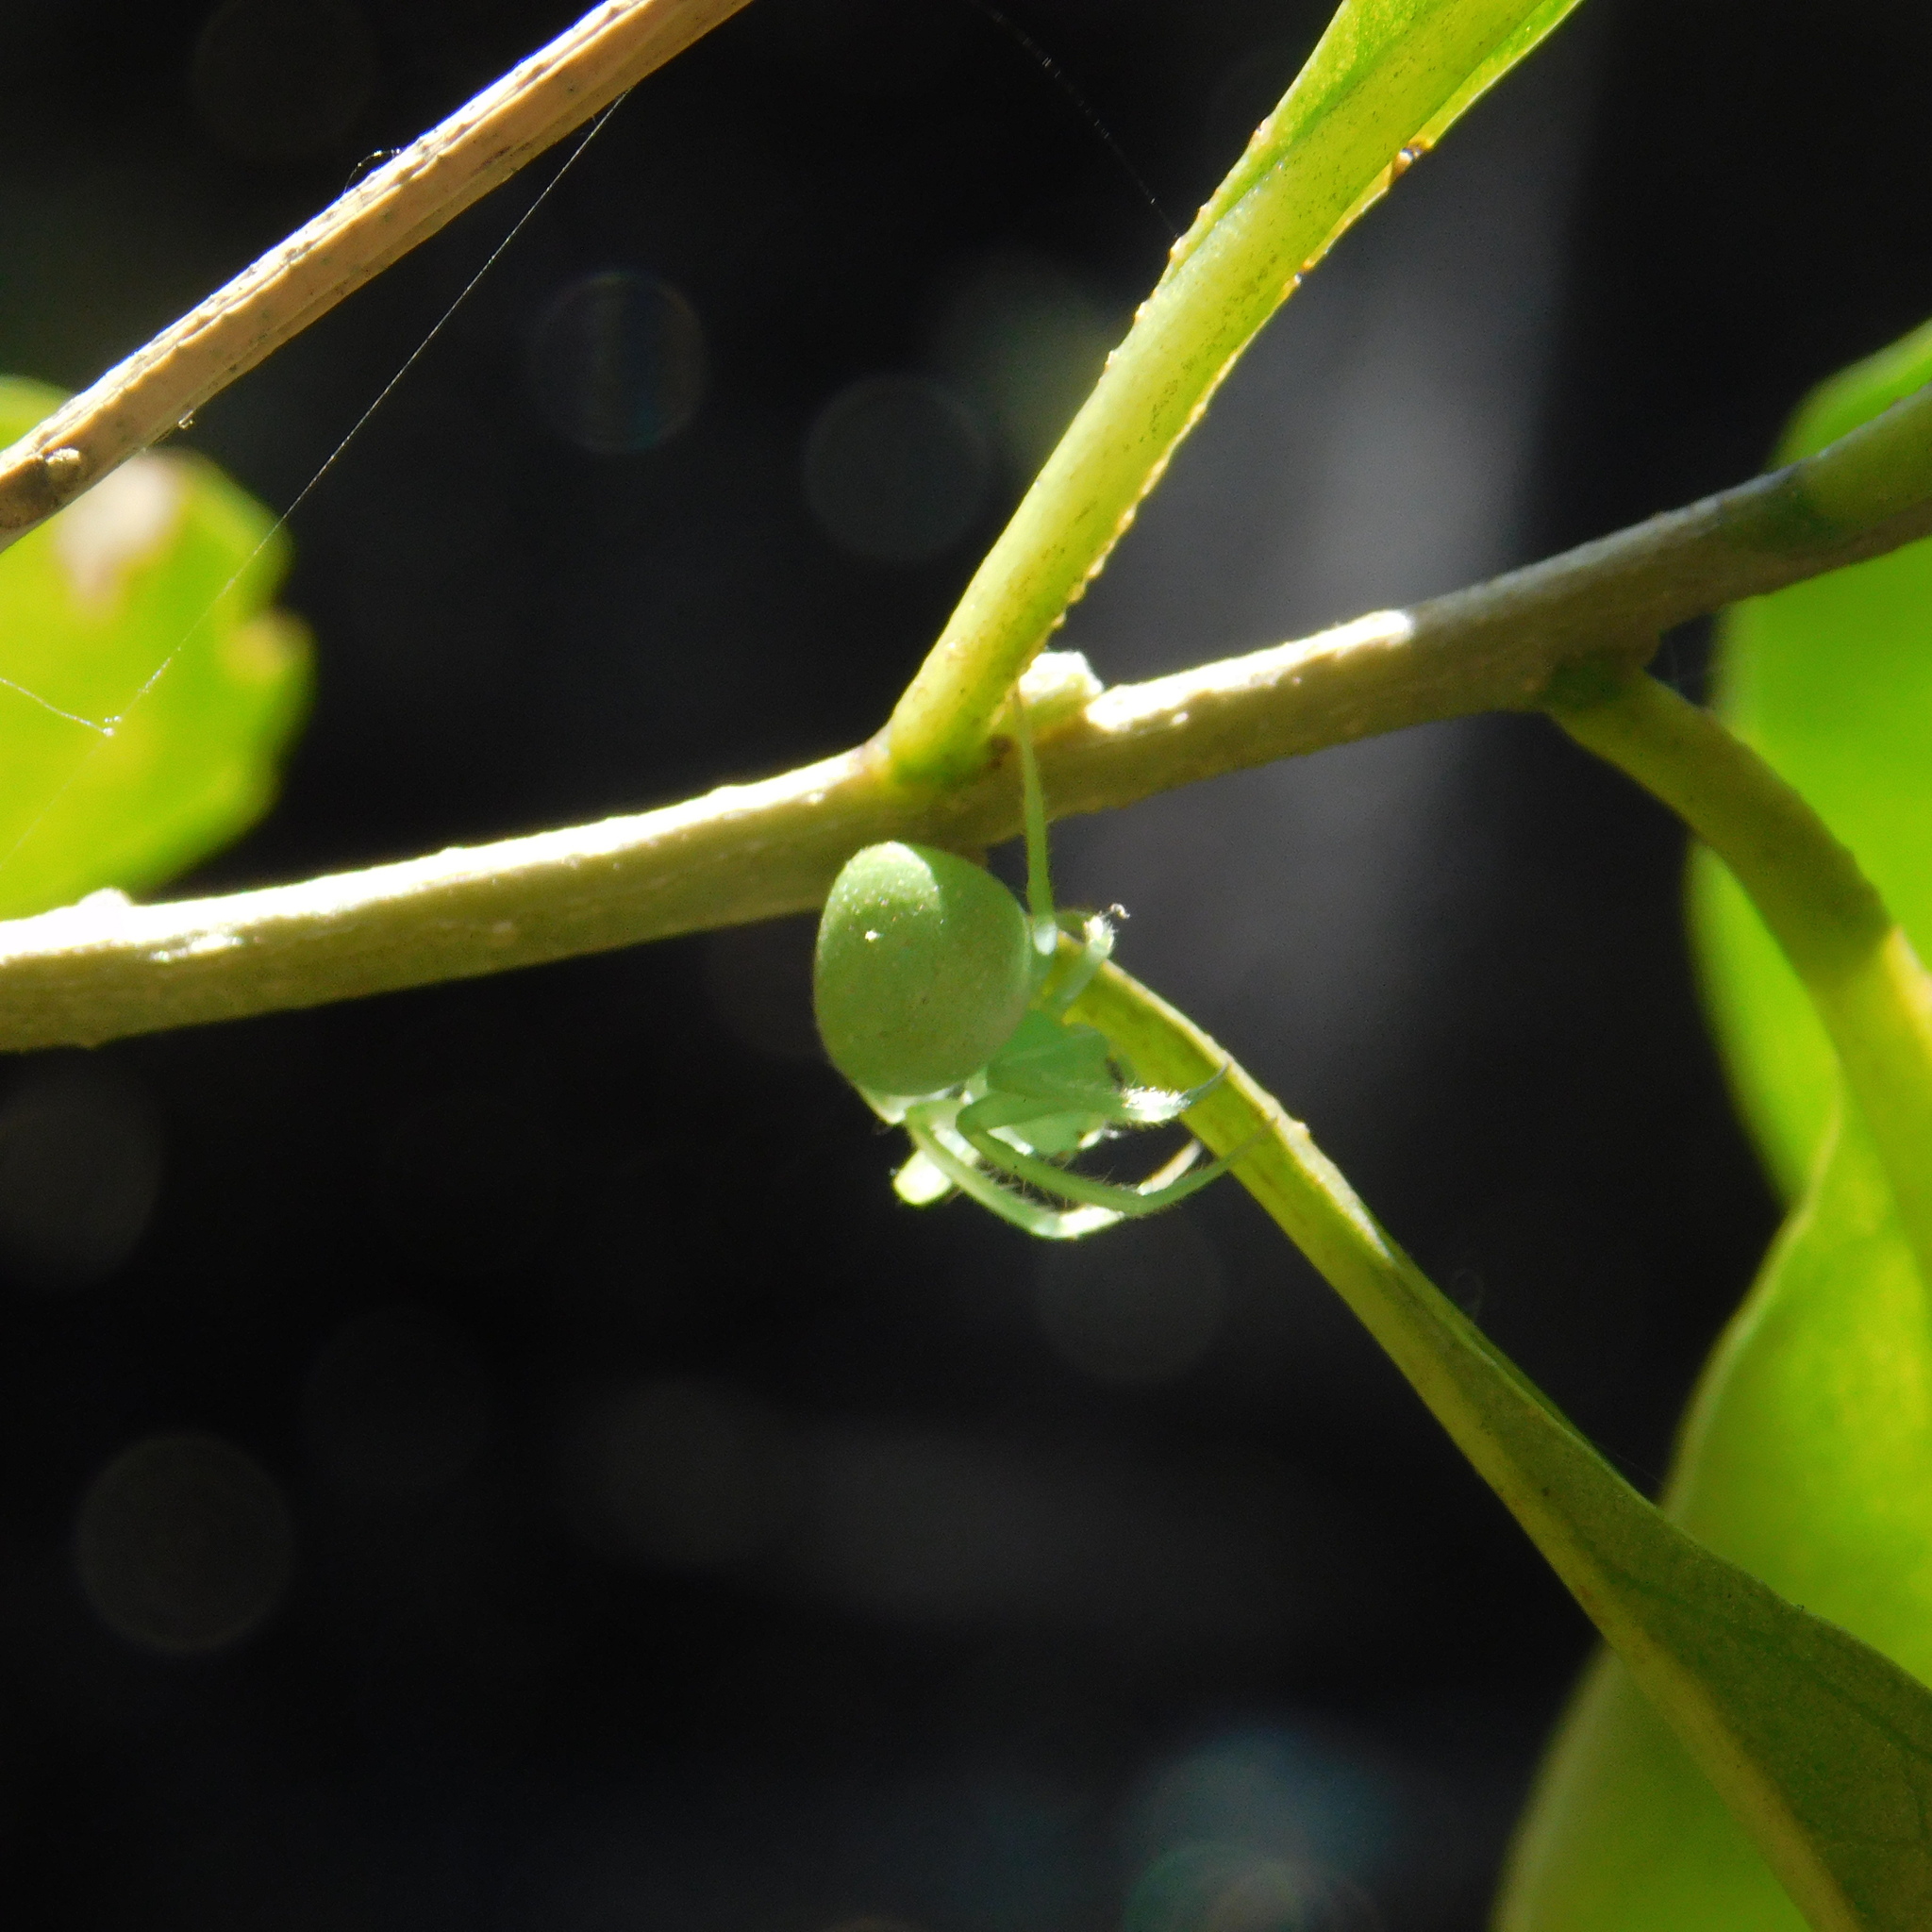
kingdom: Animalia
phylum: Arthropoda
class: Arachnida
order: Araneae
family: Araneidae
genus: Araneus
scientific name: Araneus uniformis
